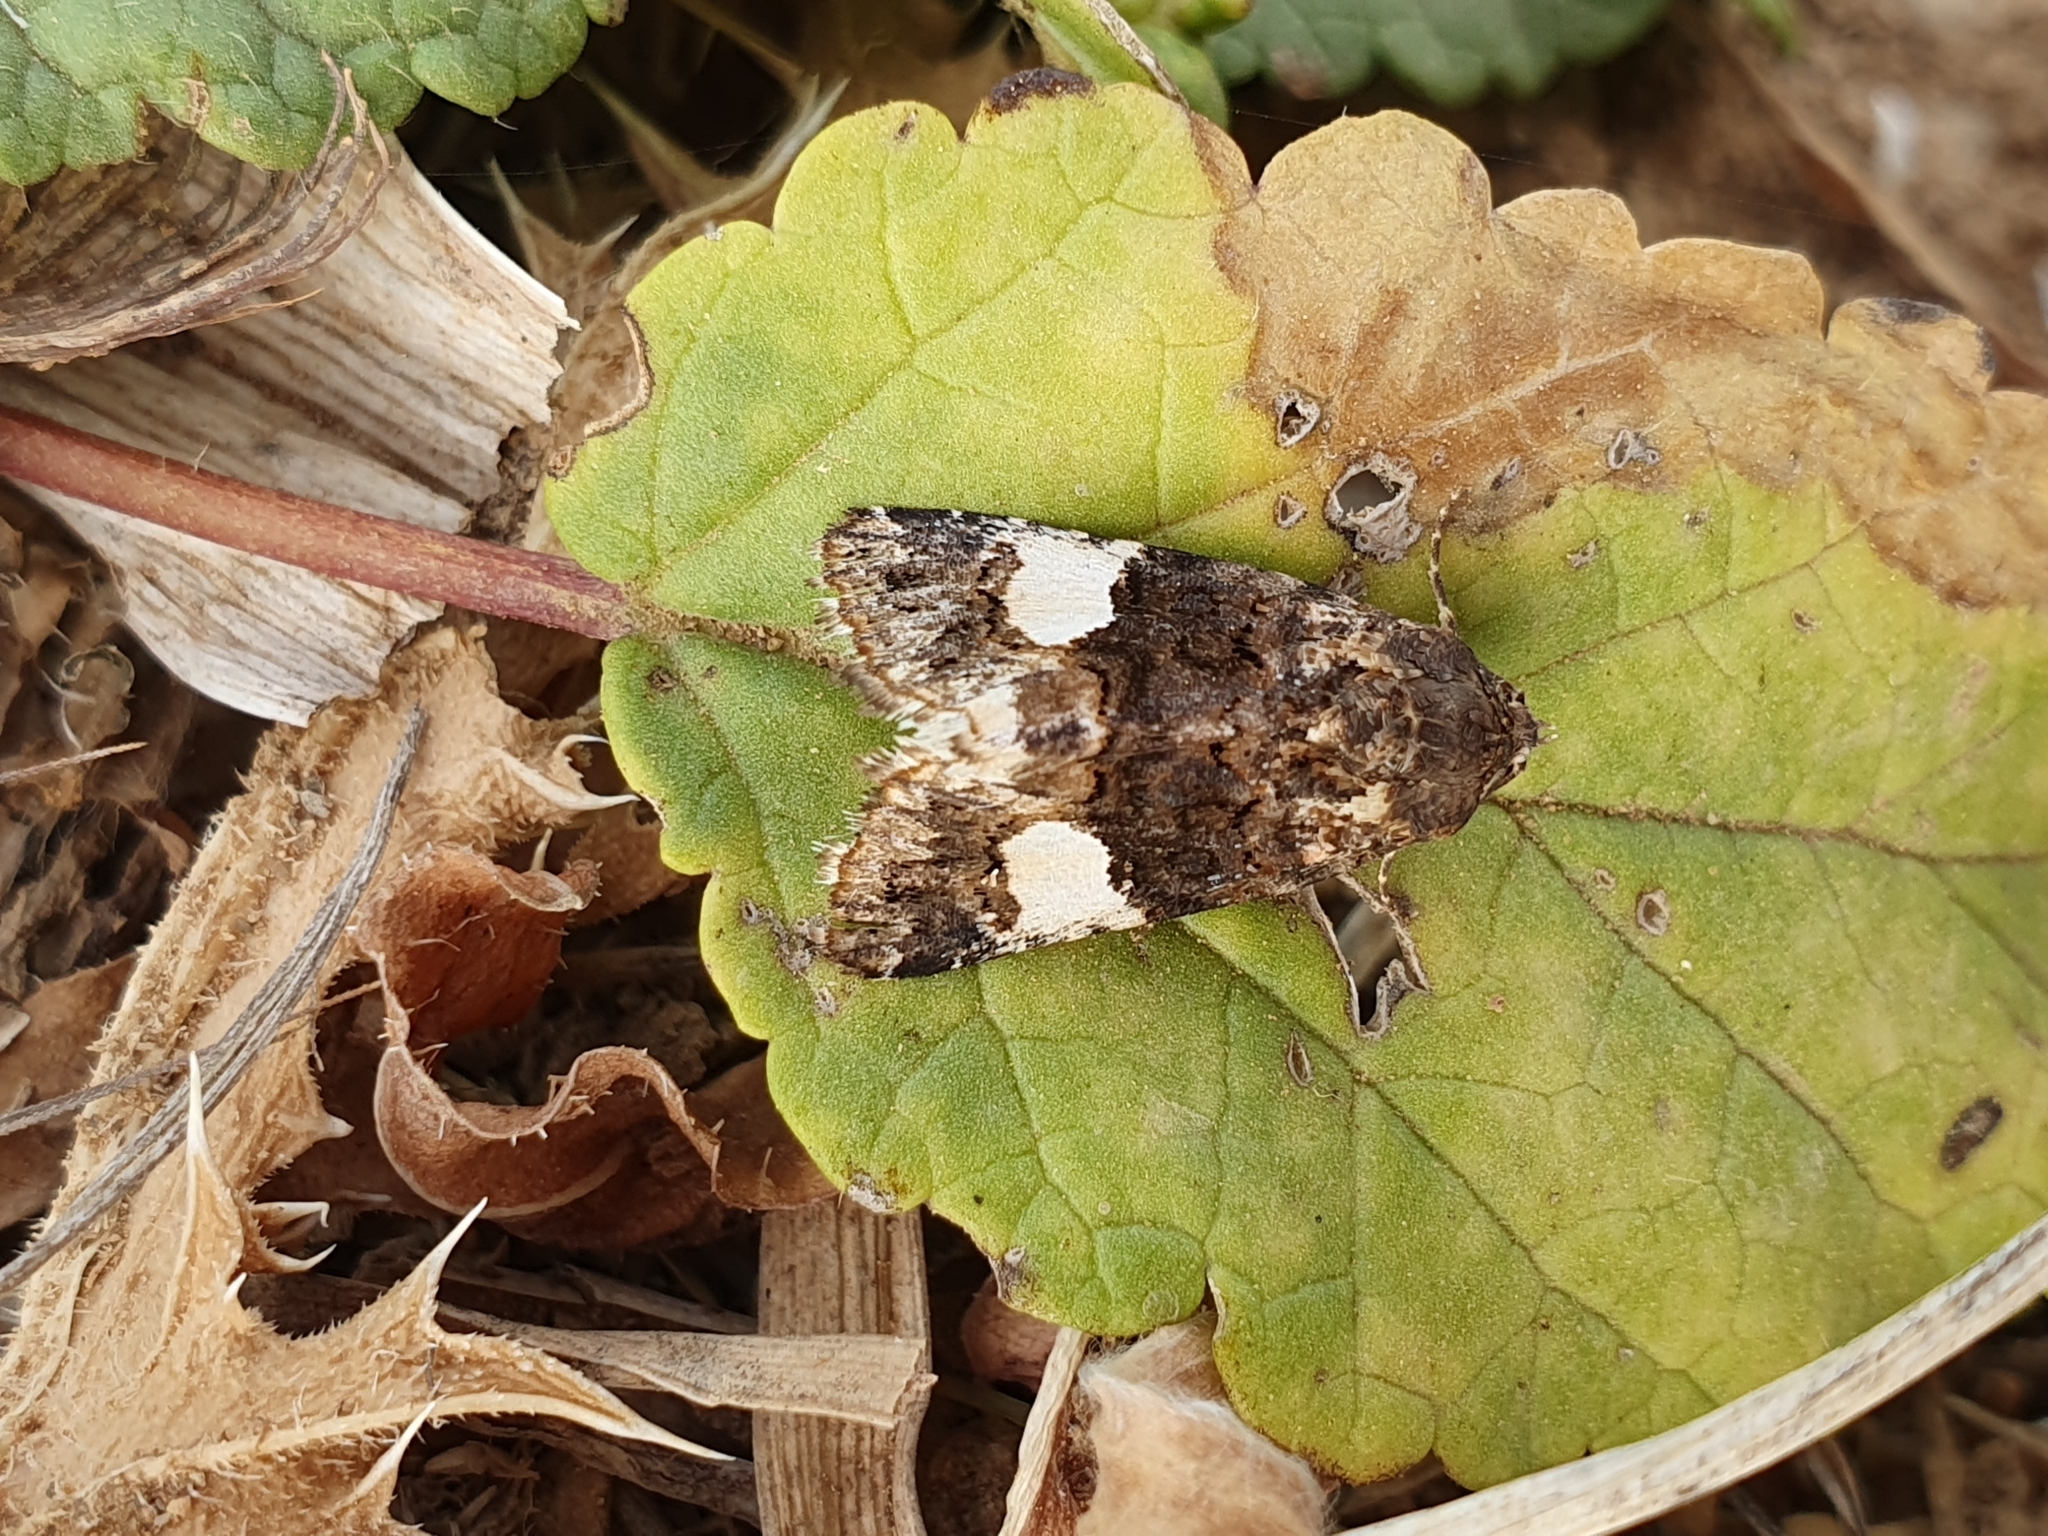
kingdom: Animalia
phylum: Arthropoda
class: Insecta
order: Lepidoptera
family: Erebidae
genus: Tyta
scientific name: Tyta luctuosa
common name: Four-spotted
